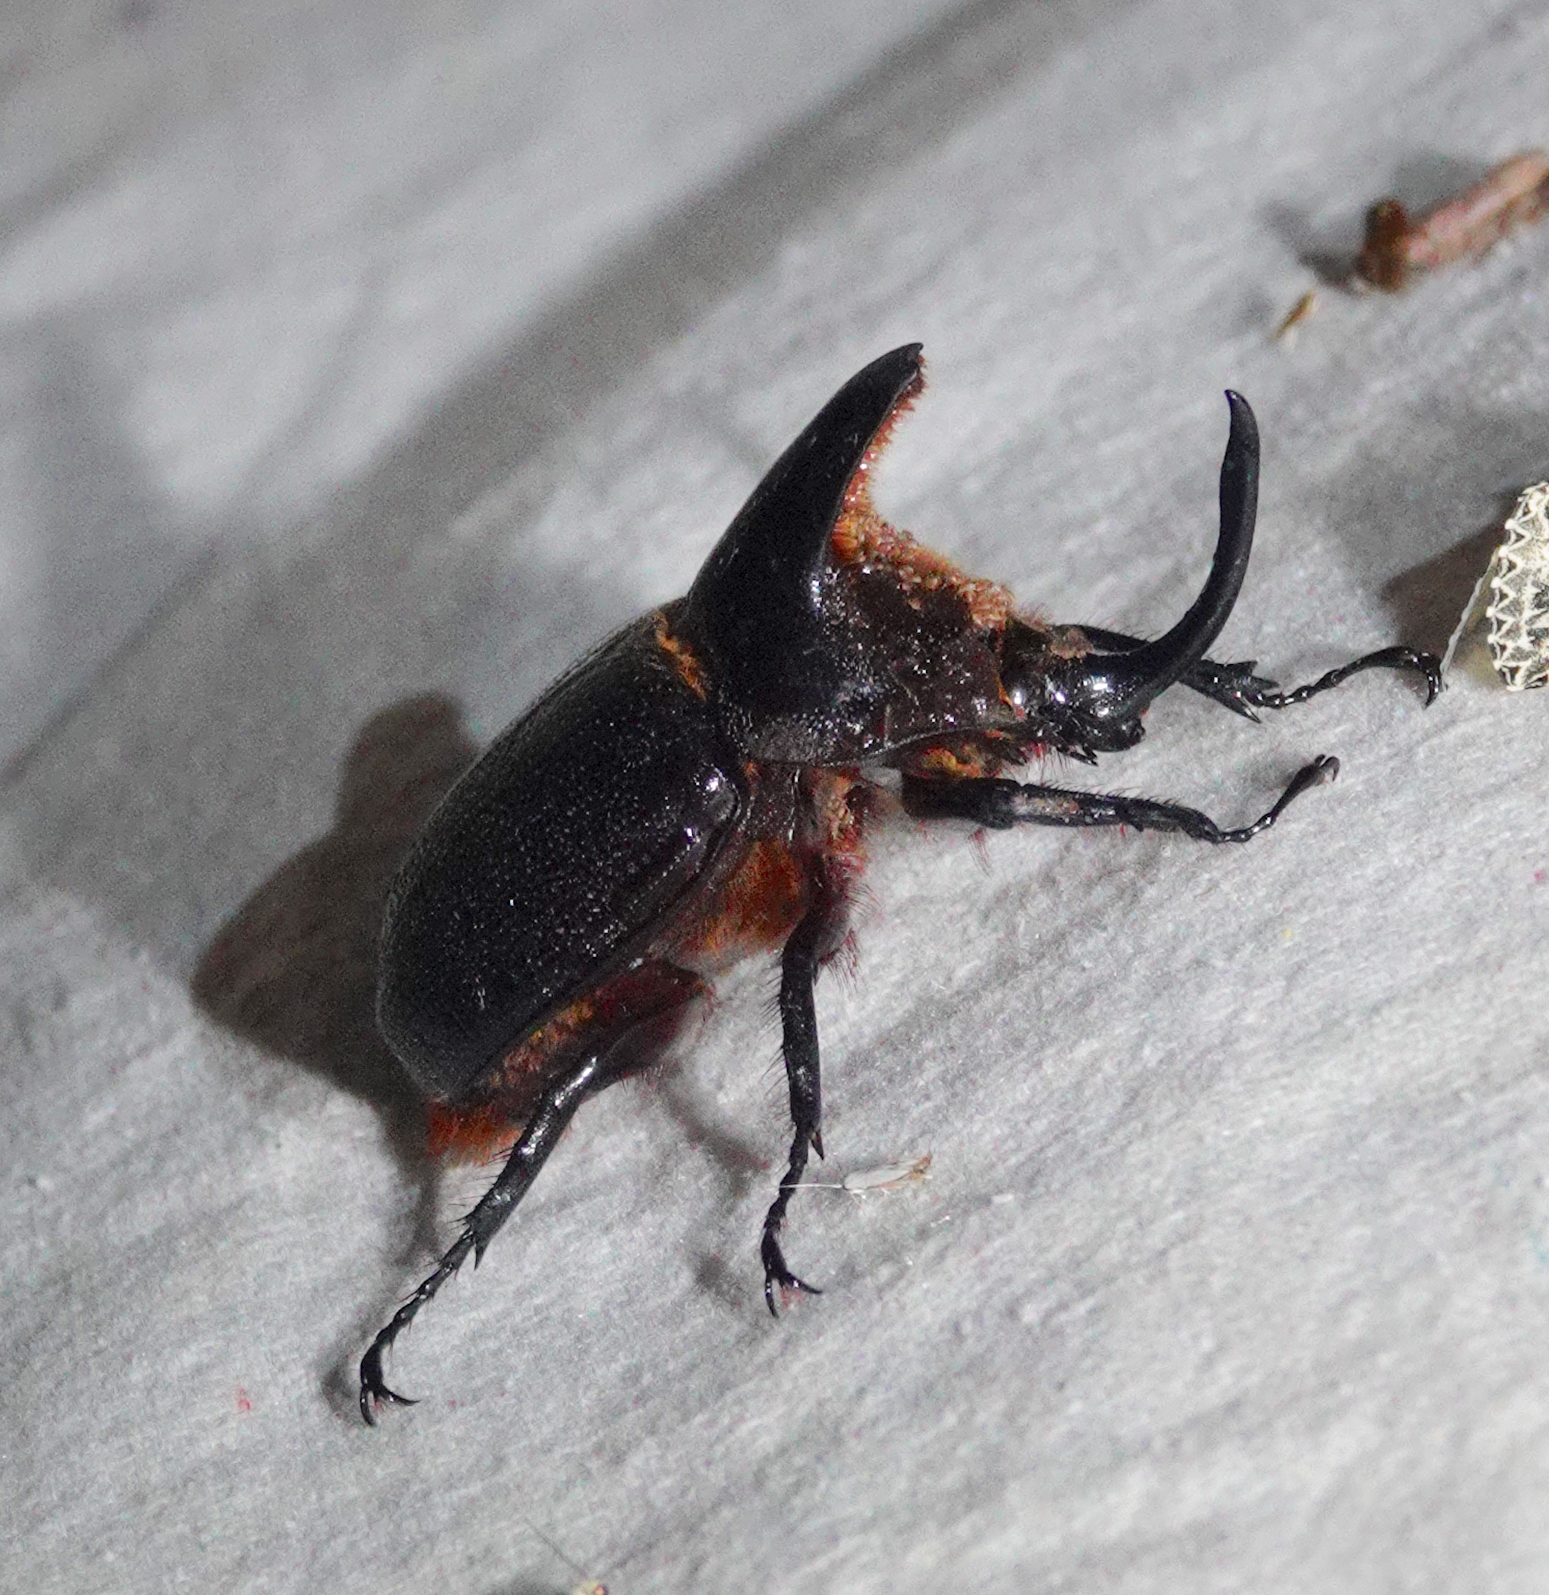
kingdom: Animalia
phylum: Arthropoda
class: Insecta
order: Coleoptera
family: Scarabaeidae
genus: Heterogomphus
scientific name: Heterogomphus schoenherri
